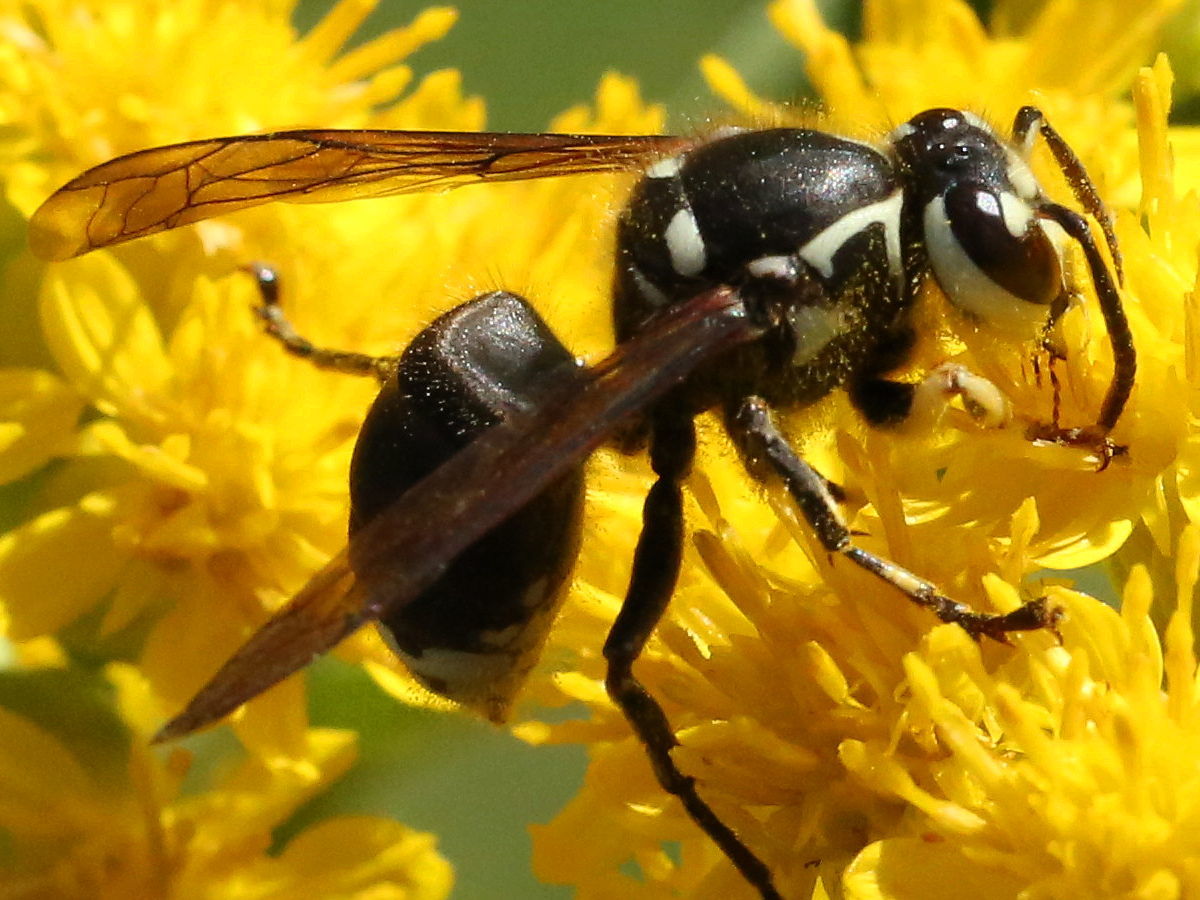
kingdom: Animalia
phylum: Arthropoda
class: Insecta
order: Hymenoptera
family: Vespidae
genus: Dolichovespula
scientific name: Dolichovespula maculata
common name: Bald-faced hornet
